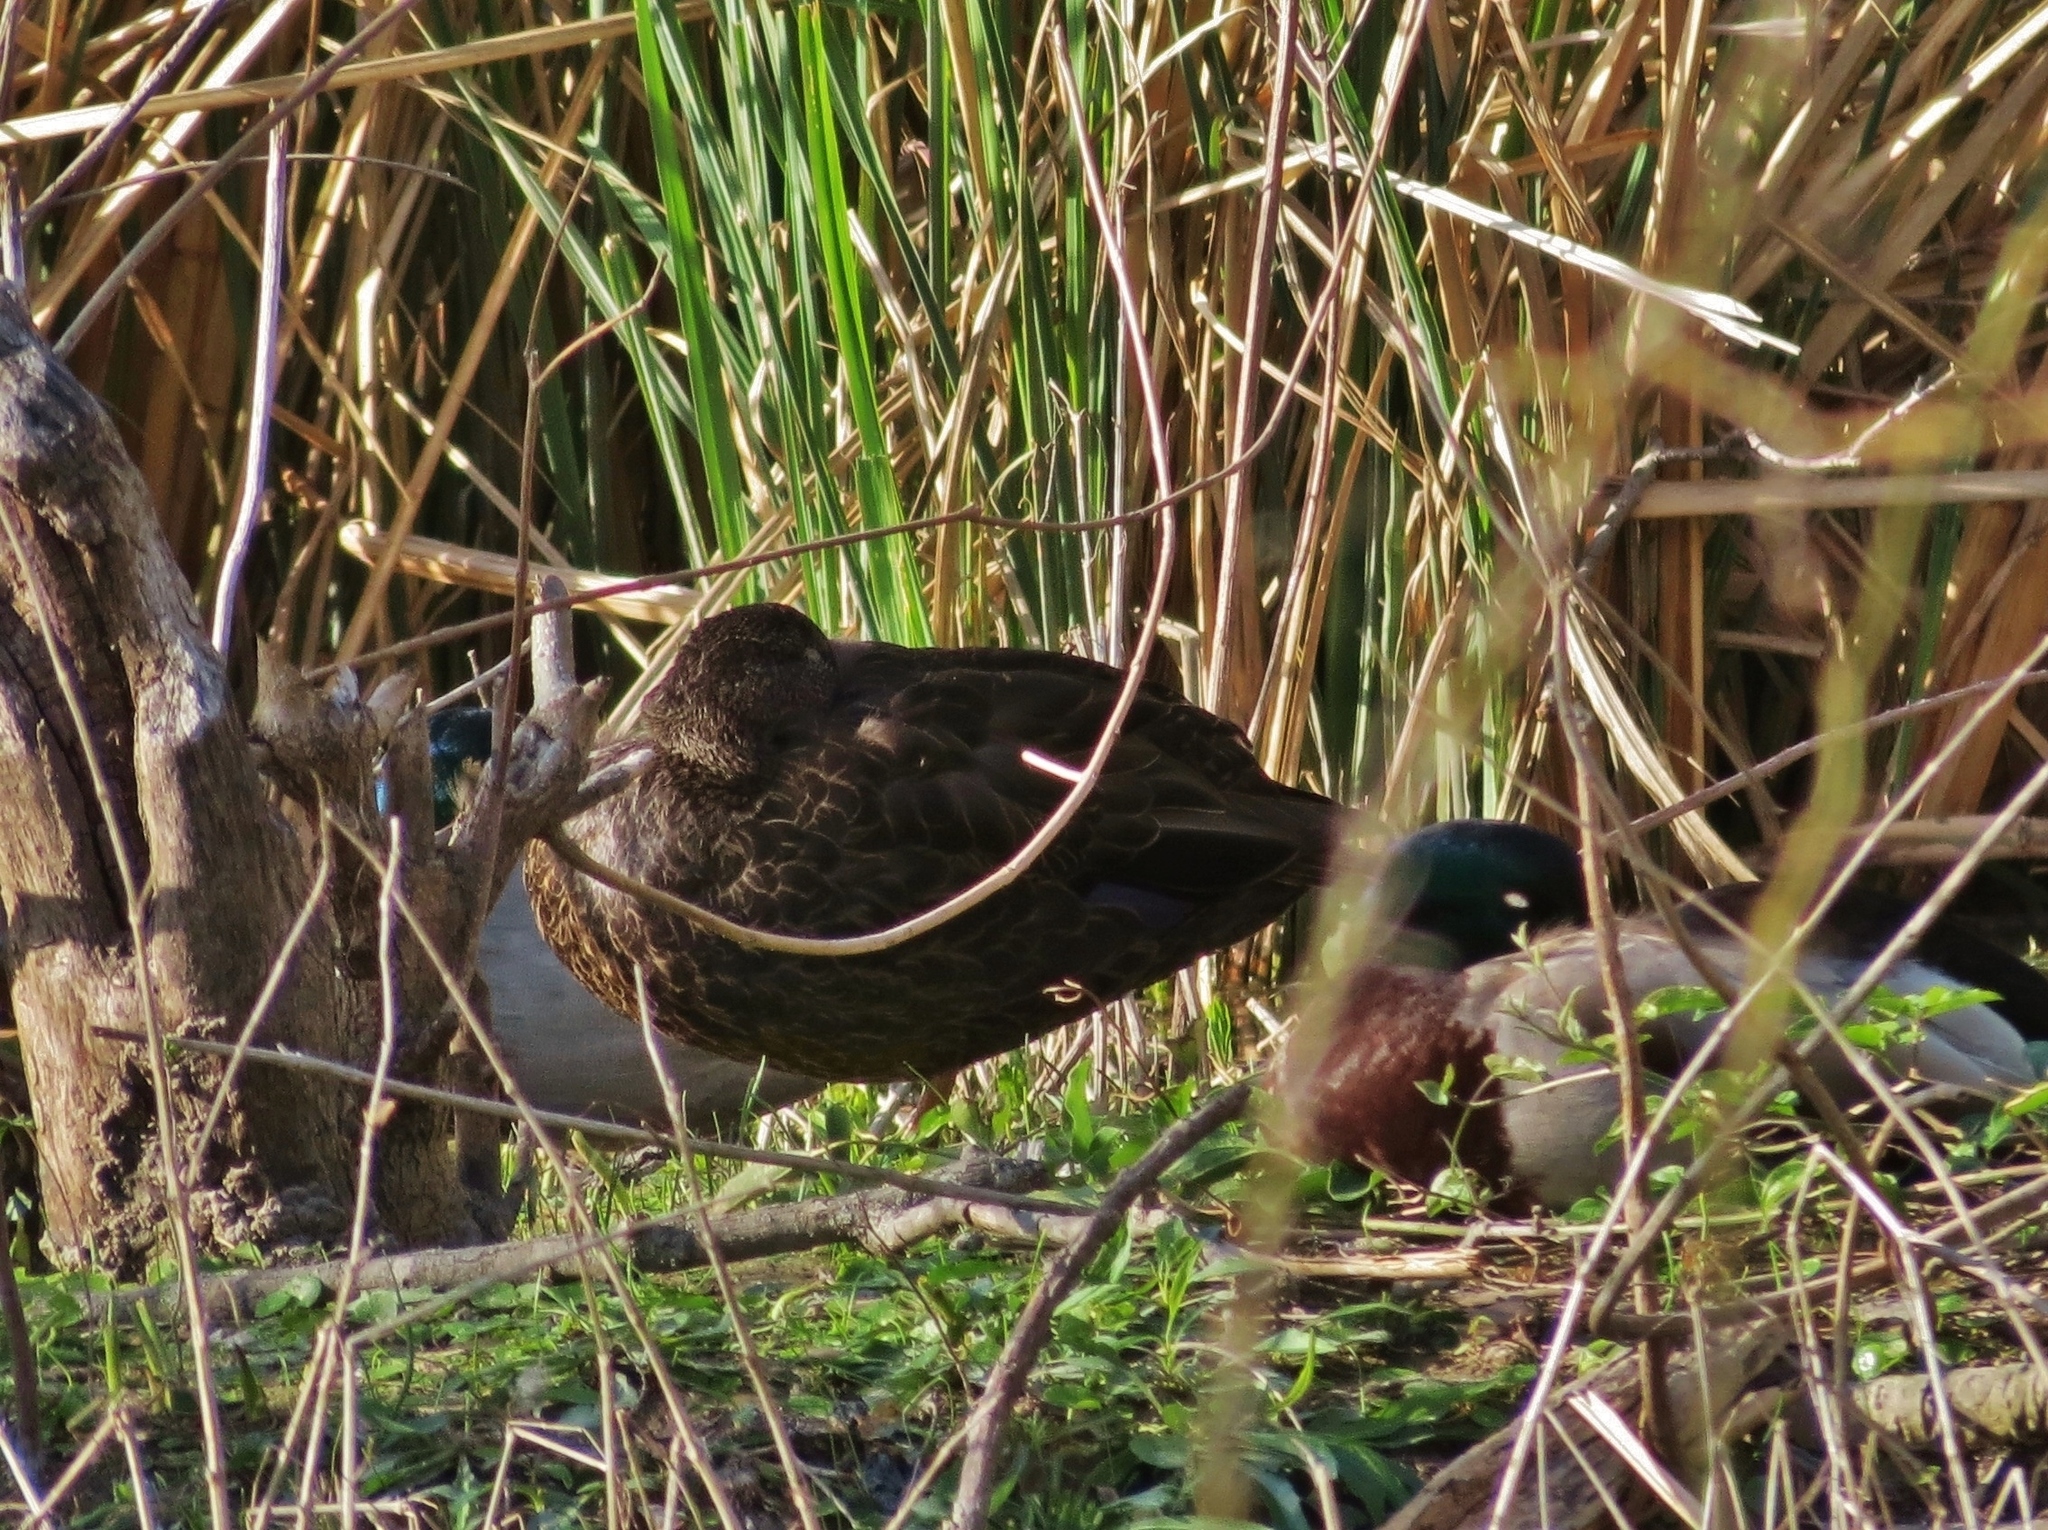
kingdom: Animalia
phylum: Chordata
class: Aves
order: Anseriformes
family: Anatidae
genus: Anas
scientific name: Anas rubripes
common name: American black duck
